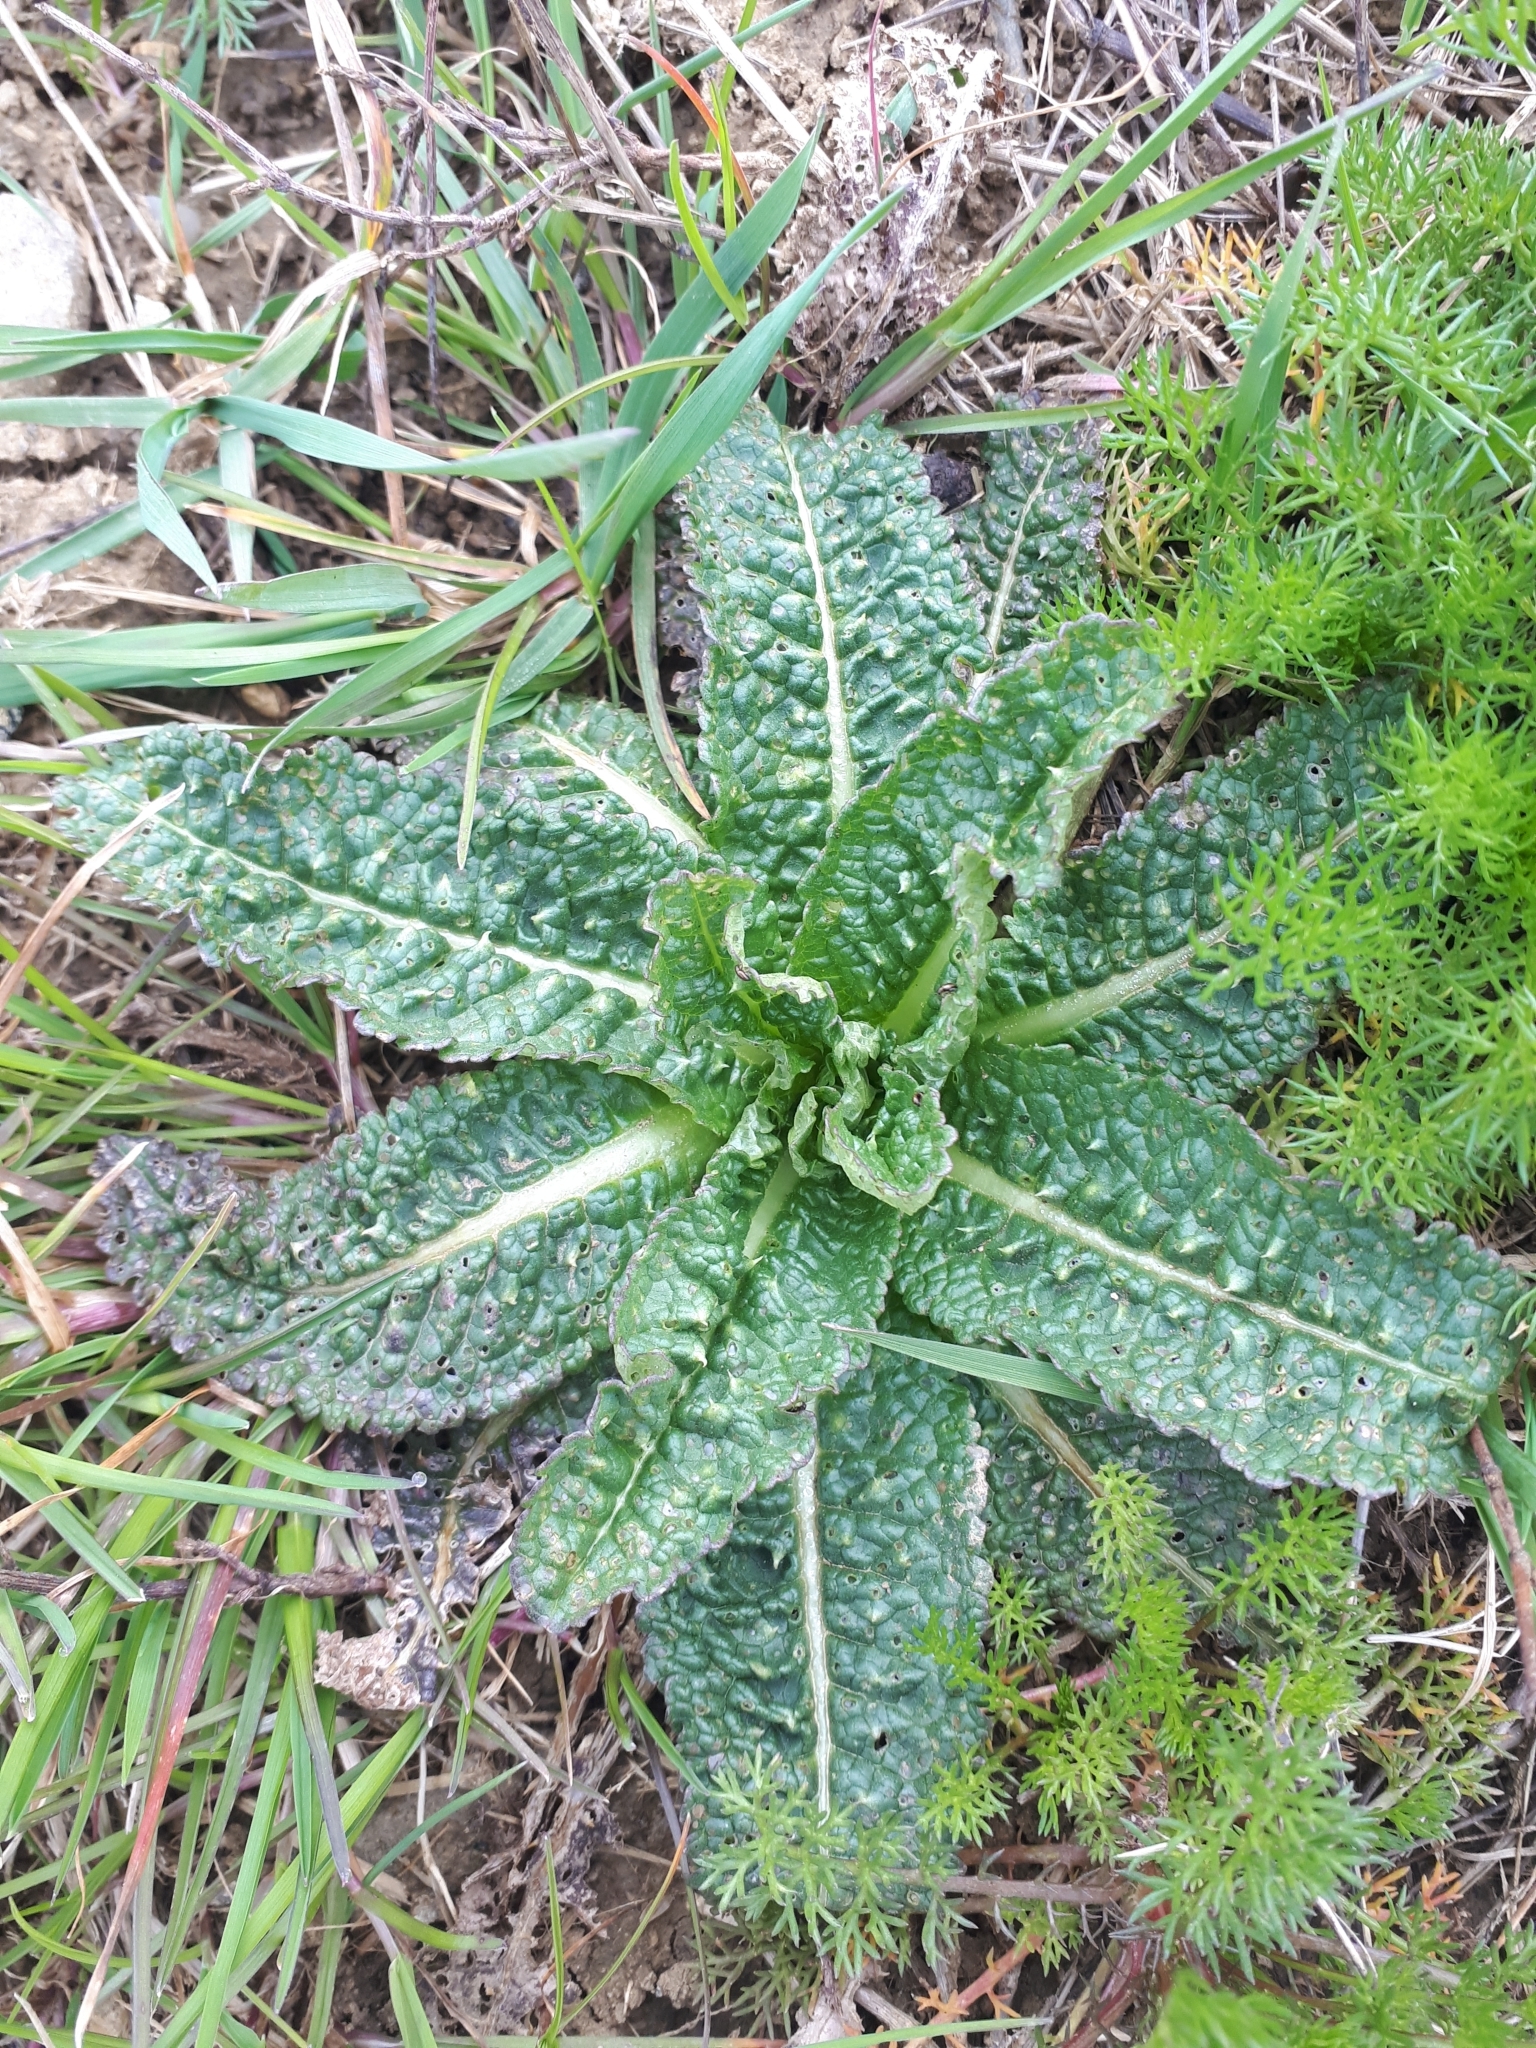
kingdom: Plantae
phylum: Tracheophyta
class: Magnoliopsida
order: Dipsacales
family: Caprifoliaceae
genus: Dipsacus
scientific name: Dipsacus fullonum
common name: Teasel
